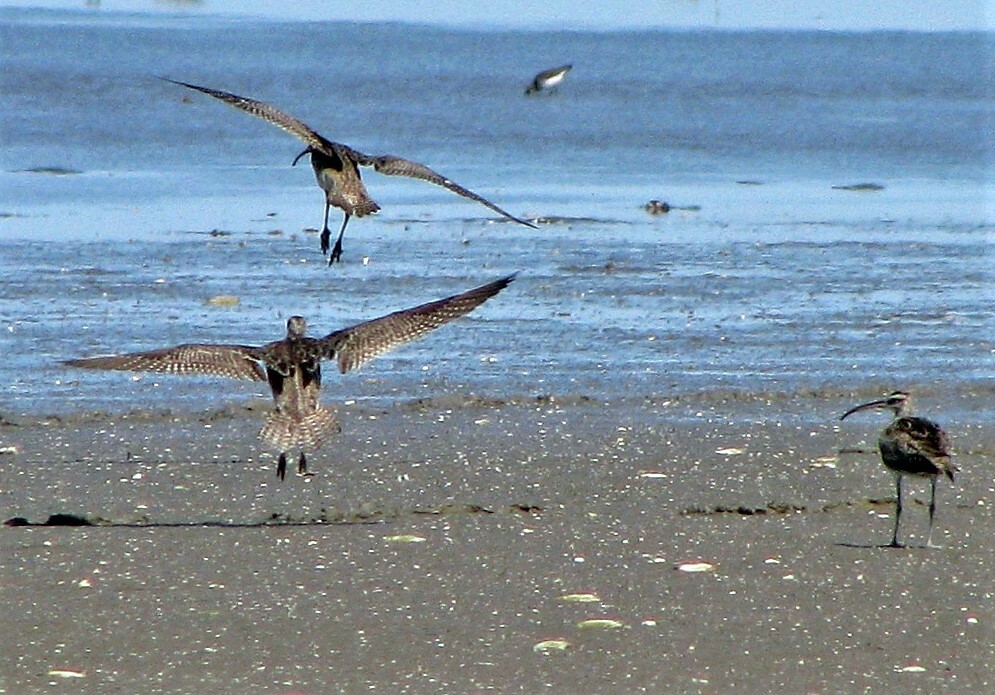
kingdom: Animalia
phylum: Chordata
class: Aves
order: Charadriiformes
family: Scolopacidae
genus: Numenius
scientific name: Numenius phaeopus
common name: Whimbrel
